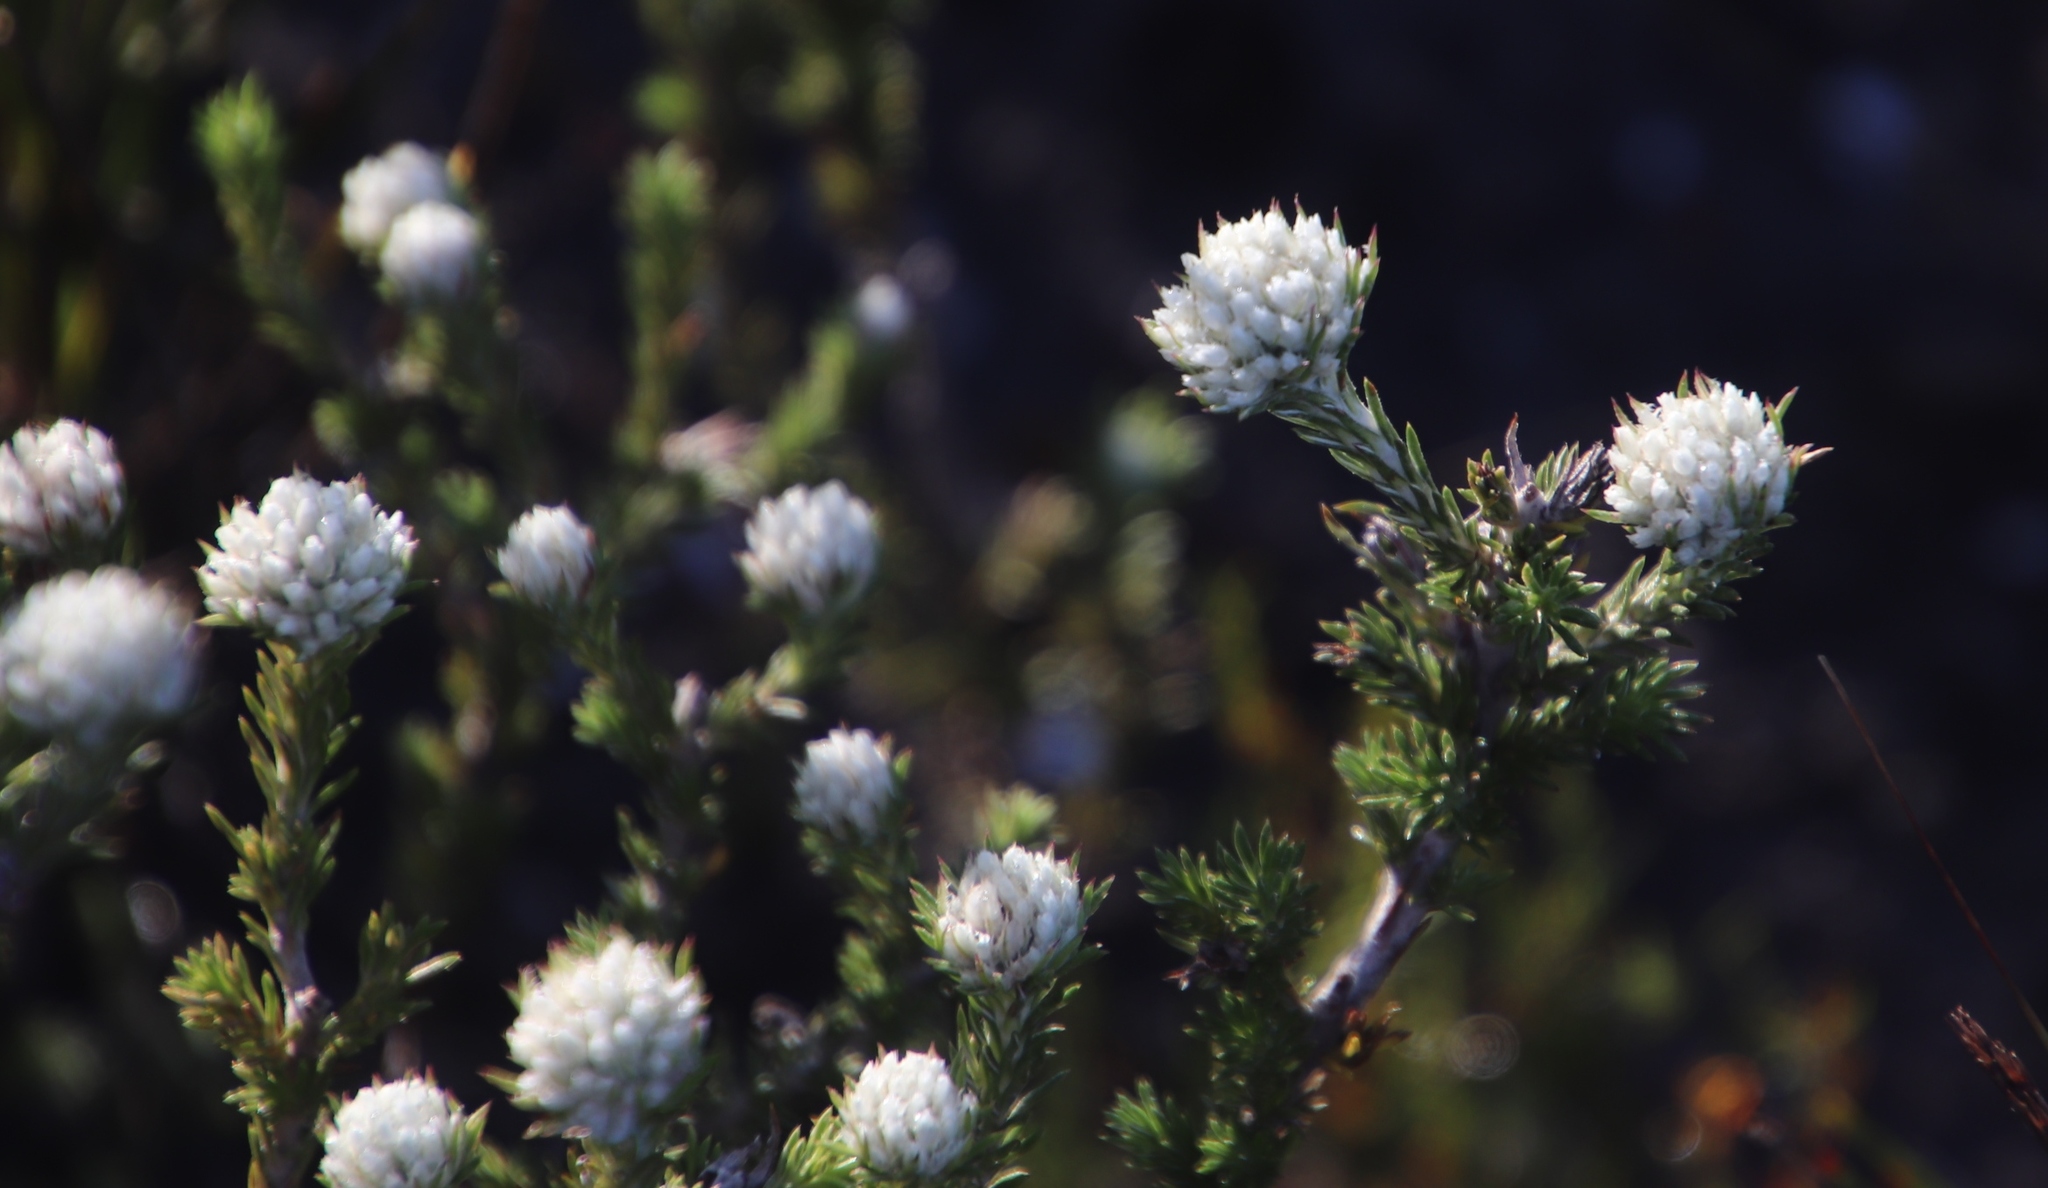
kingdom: Plantae
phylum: Tracheophyta
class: Magnoliopsida
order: Asterales
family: Asteraceae
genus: Metalasia
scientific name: Metalasia compacta
